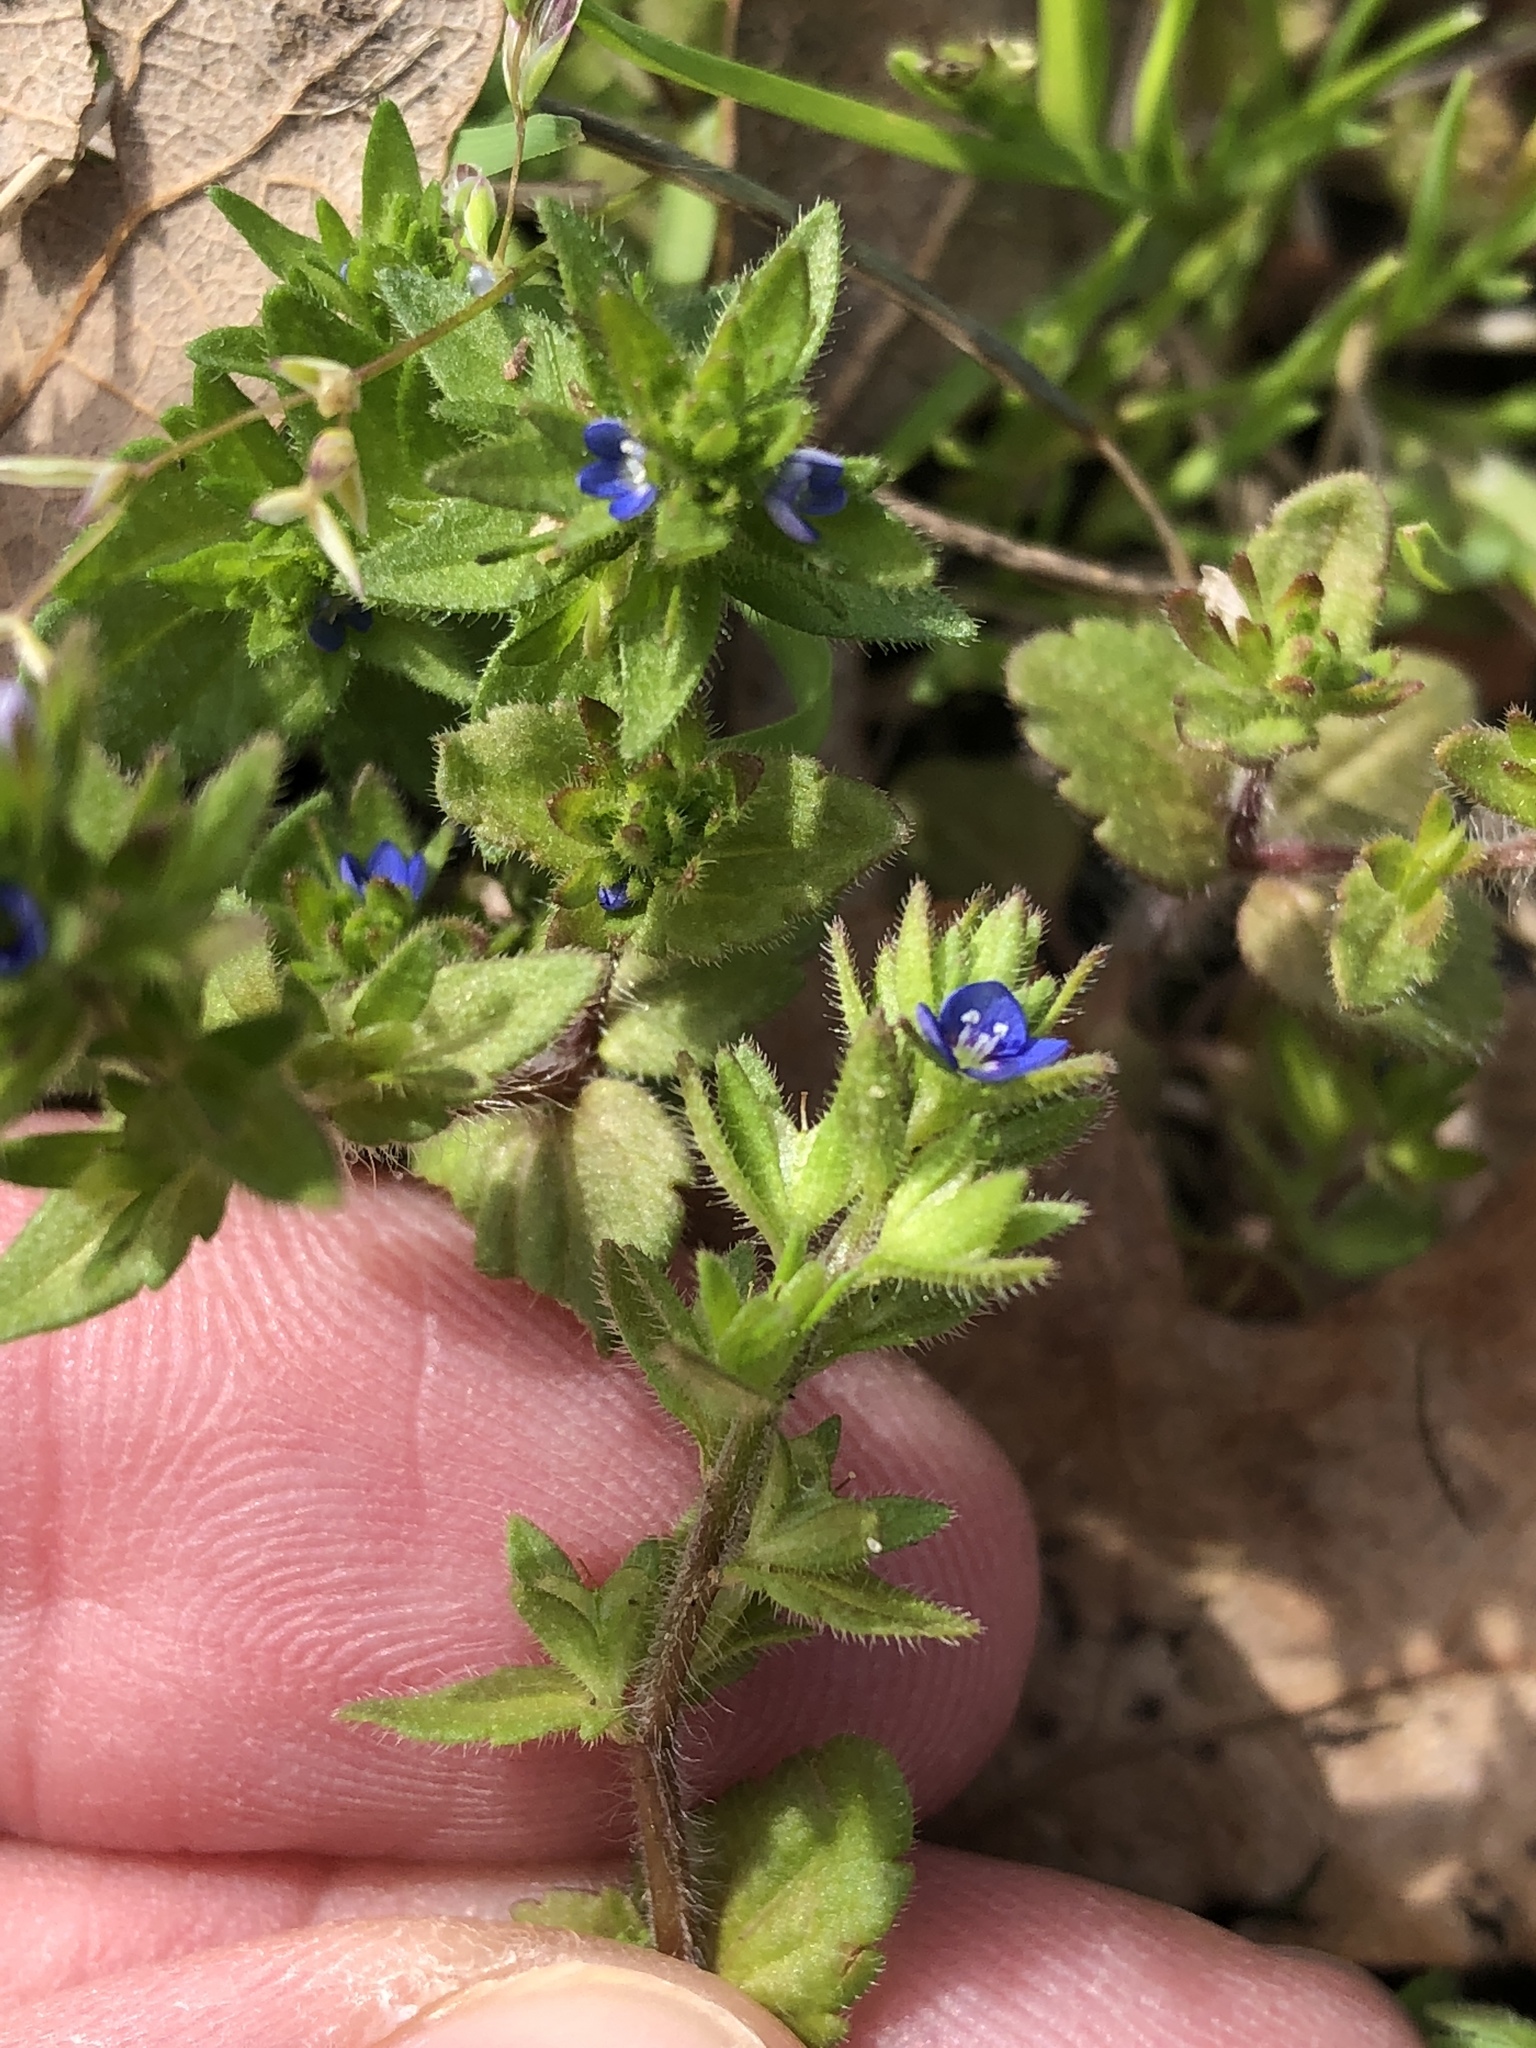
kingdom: Plantae
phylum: Tracheophyta
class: Magnoliopsida
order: Lamiales
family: Plantaginaceae
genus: Veronica
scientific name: Veronica arvensis
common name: Corn speedwell
